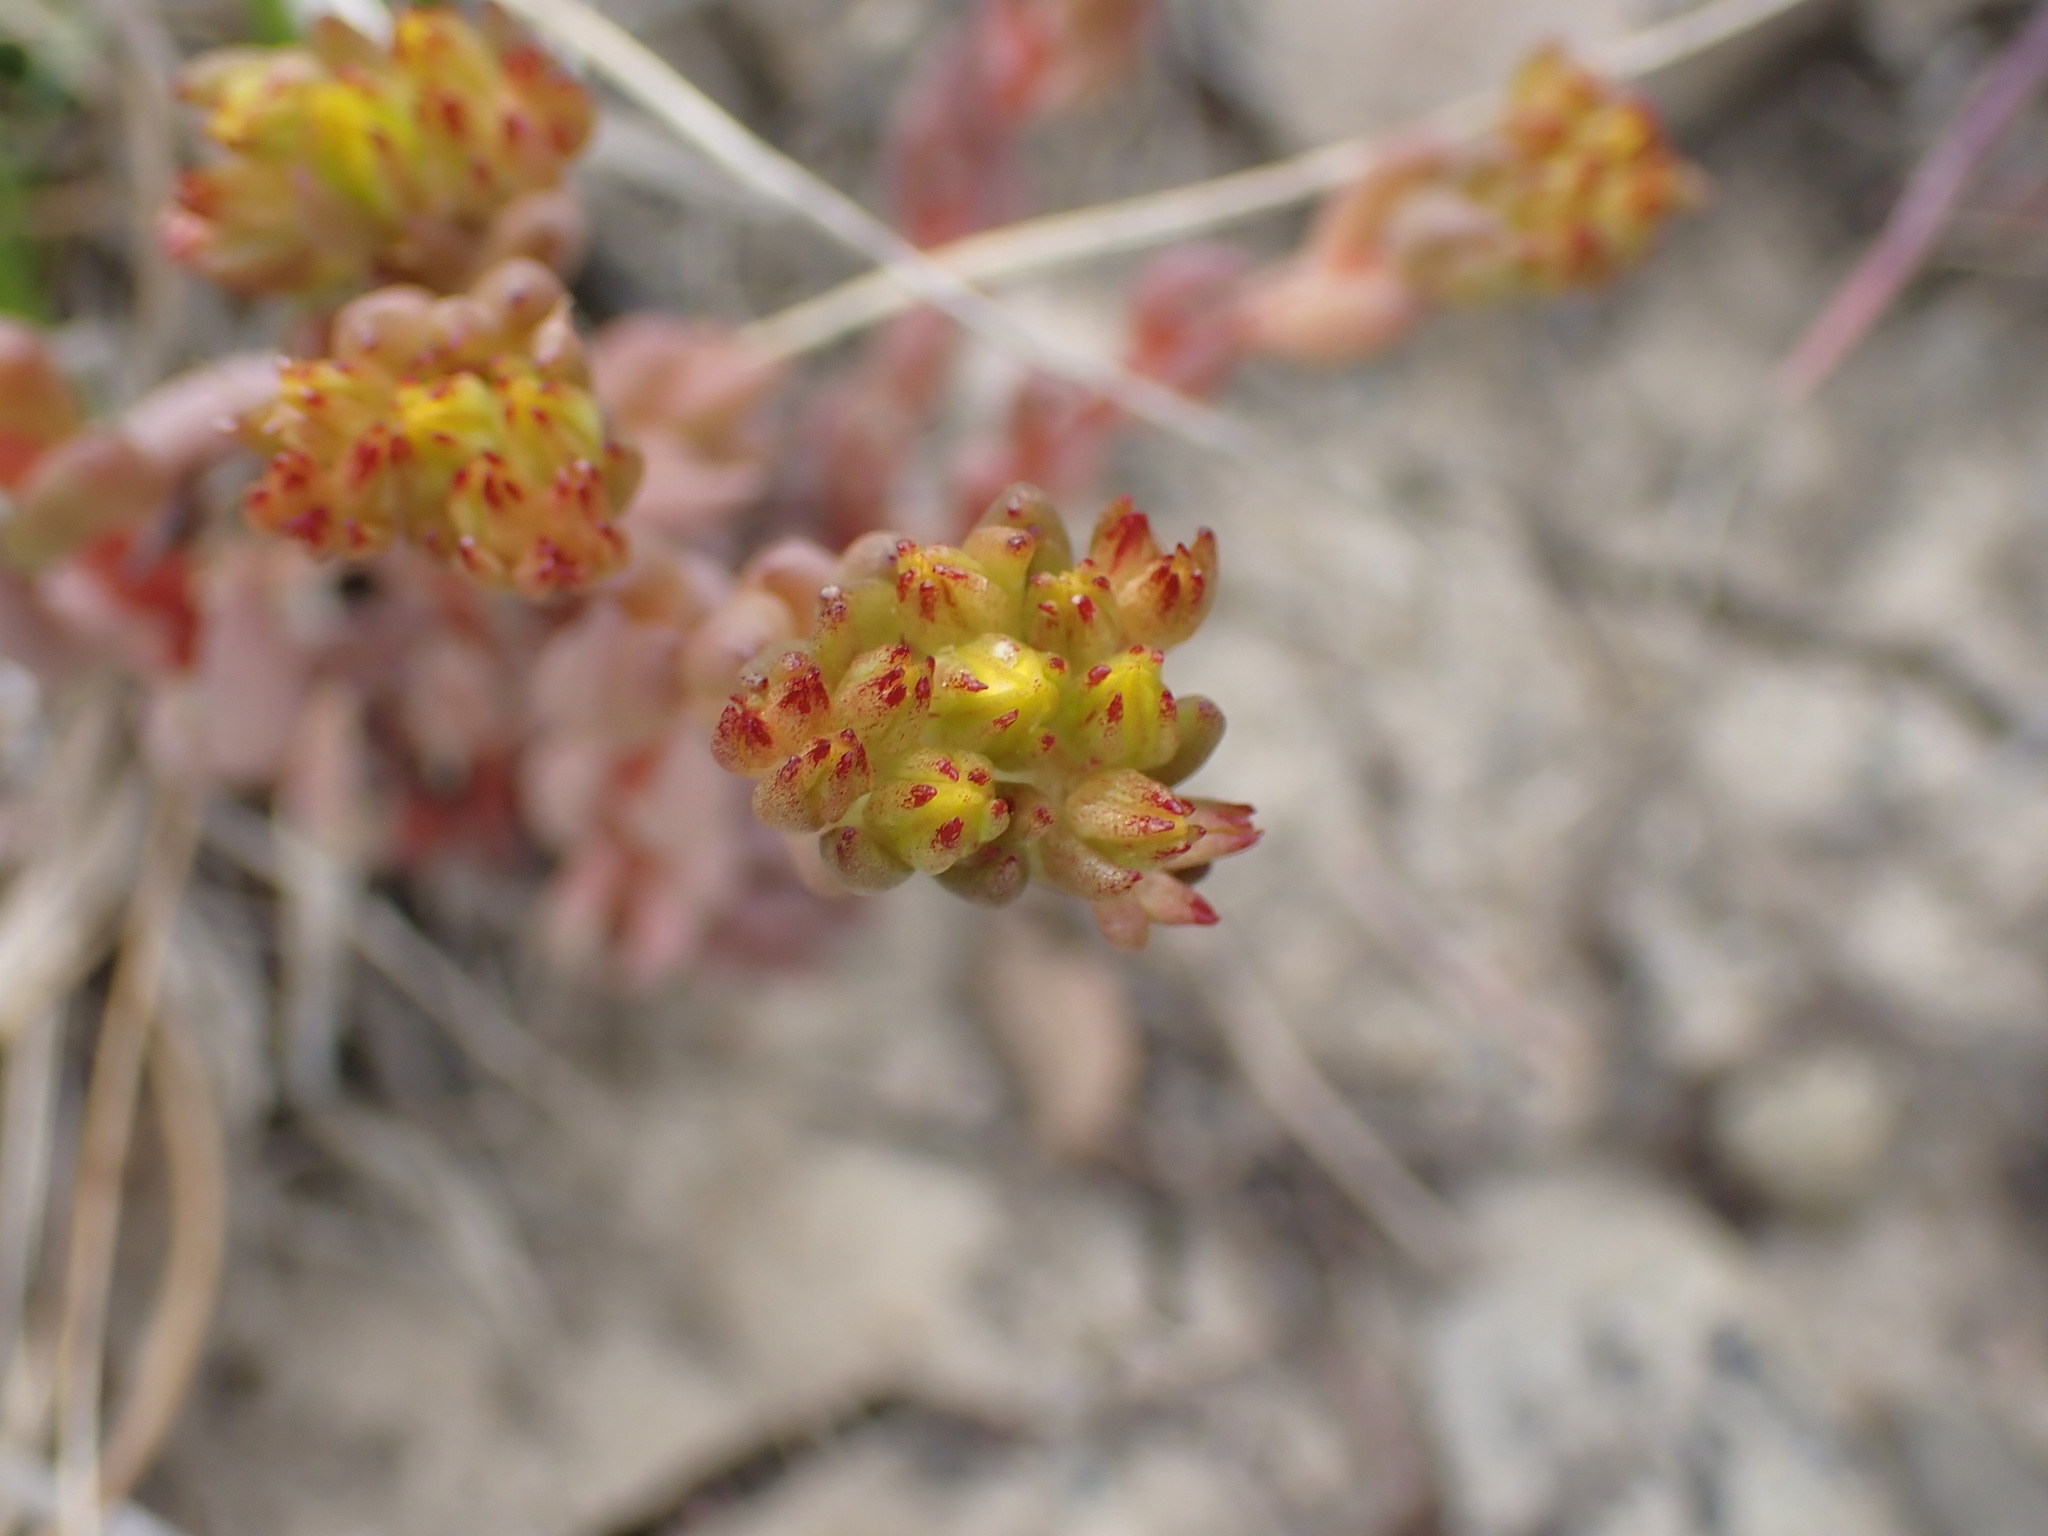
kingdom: Plantae
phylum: Tracheophyta
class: Magnoliopsida
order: Saxifragales
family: Crassulaceae
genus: Sedum
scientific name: Sedum lanceolatum
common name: Common stonecrop
